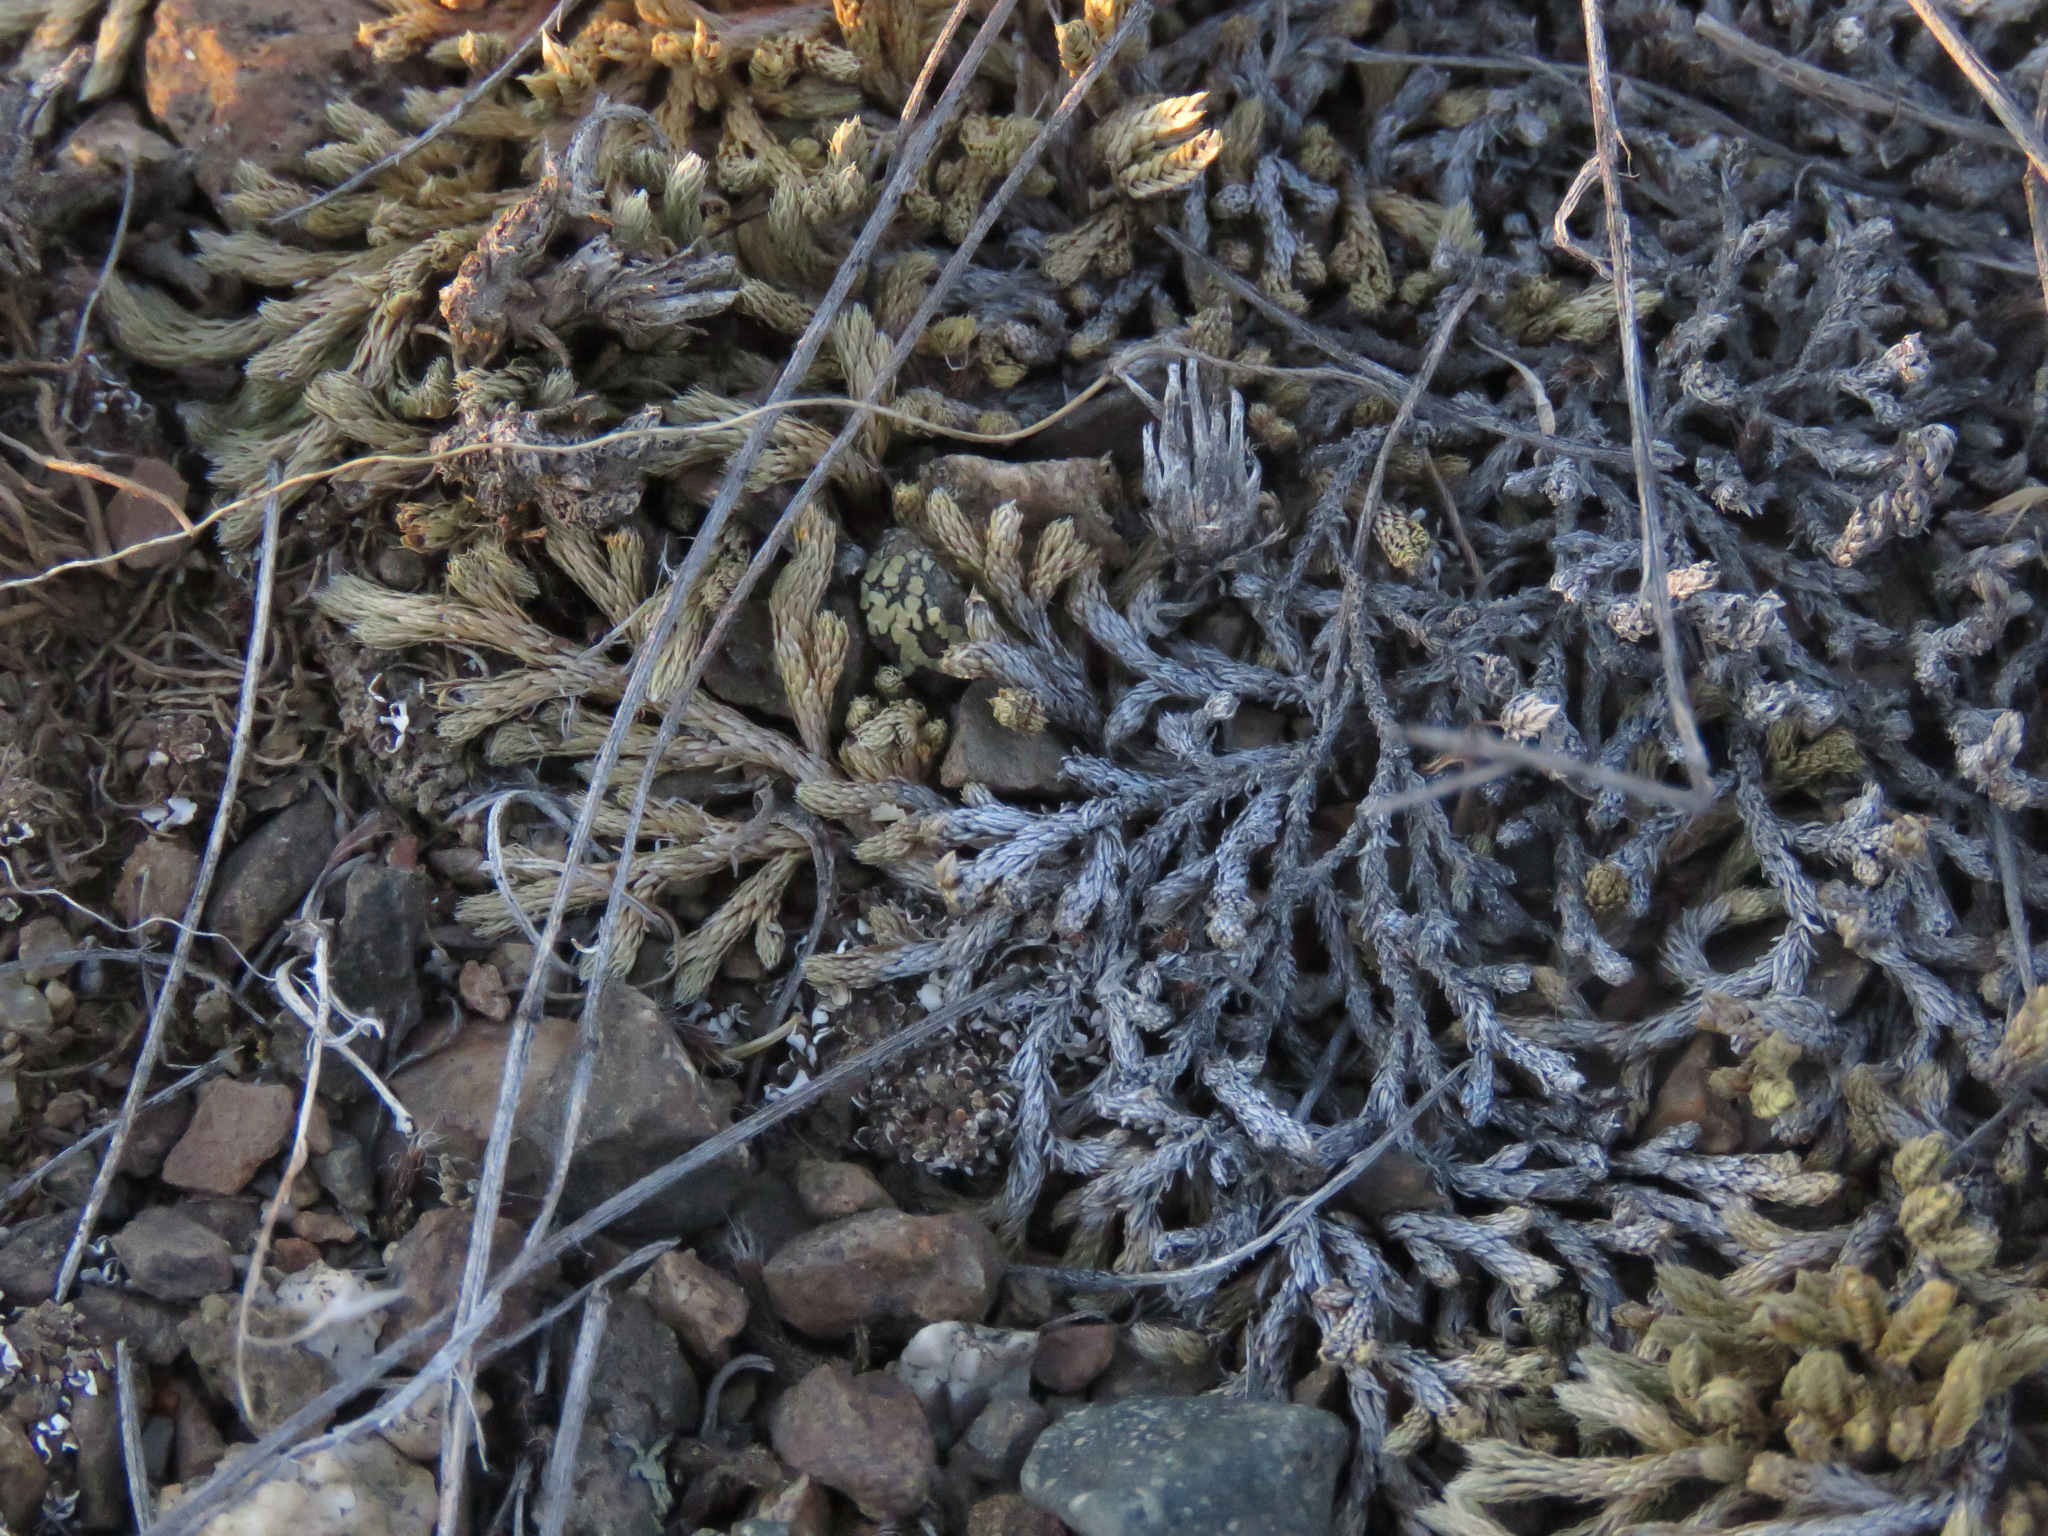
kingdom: Plantae
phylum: Tracheophyta
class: Lycopodiopsida
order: Selaginellales
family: Selaginellaceae
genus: Selaginella
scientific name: Selaginella wallacei
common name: Wallace's selaginella
